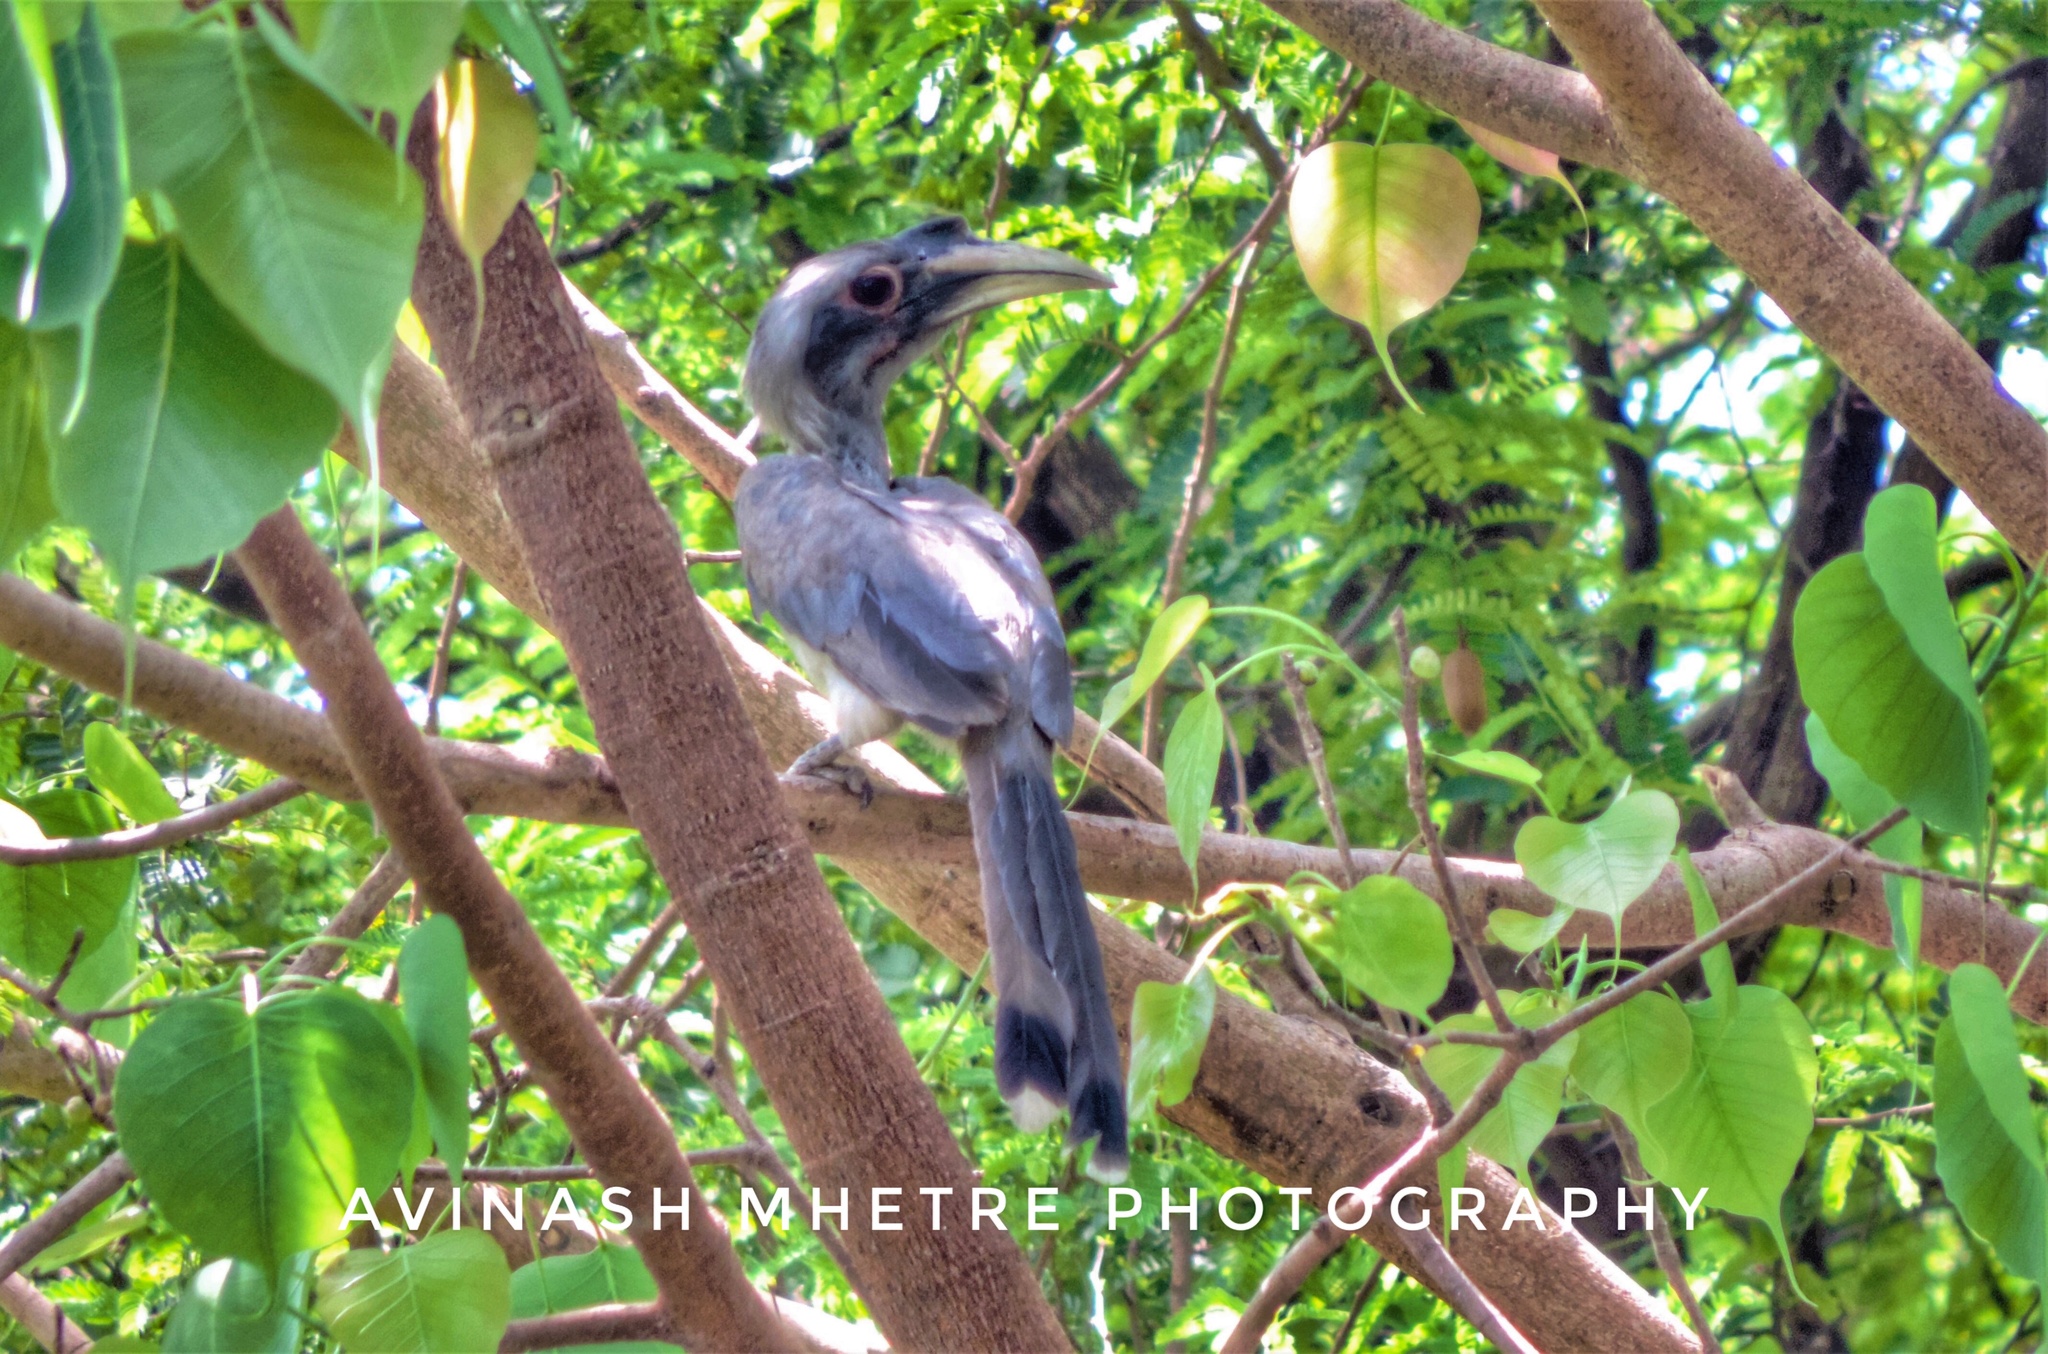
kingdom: Animalia
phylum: Chordata
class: Aves
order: Bucerotiformes
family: Bucerotidae
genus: Ocyceros
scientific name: Ocyceros birostris
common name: Indian grey hornbill
